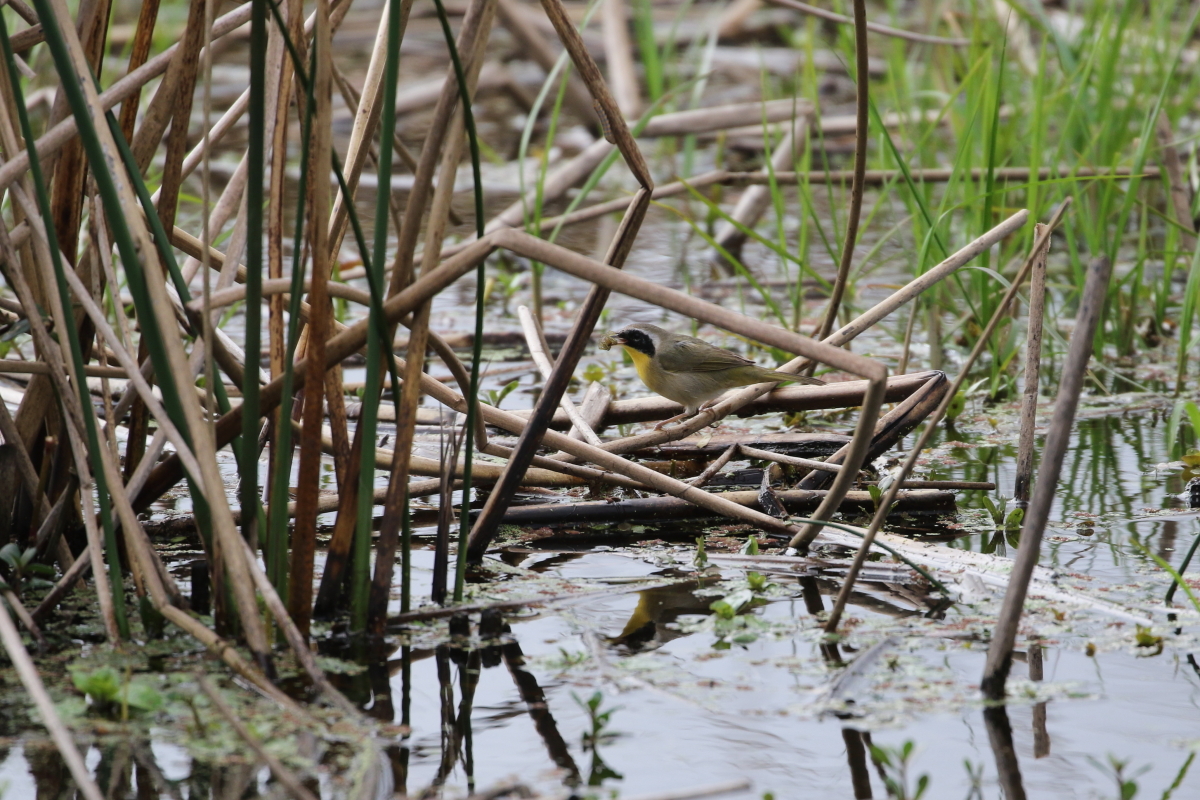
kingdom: Animalia
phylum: Chordata
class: Aves
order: Passeriformes
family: Parulidae
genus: Geothlypis
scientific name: Geothlypis trichas
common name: Common yellowthroat
